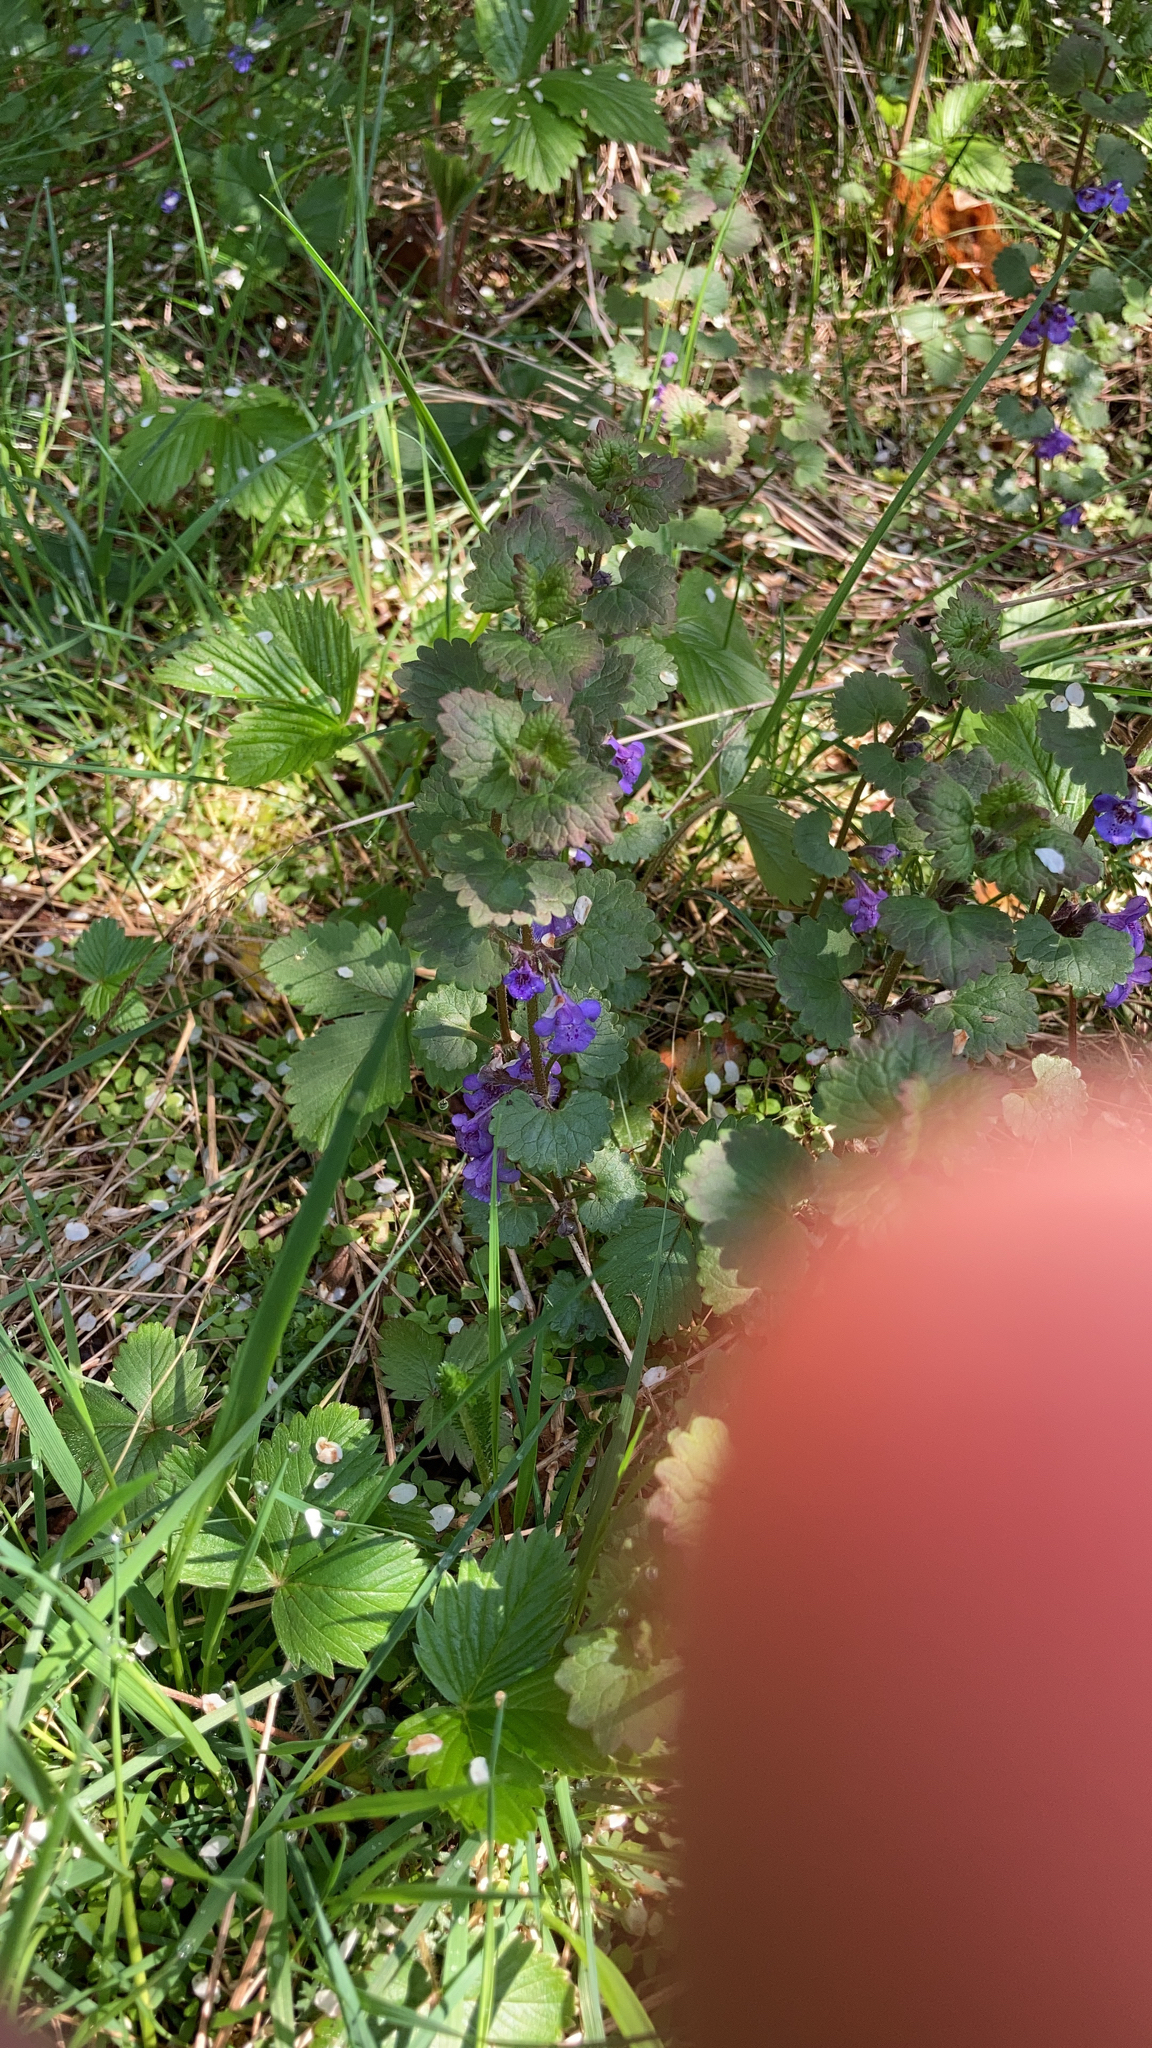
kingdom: Plantae
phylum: Tracheophyta
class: Magnoliopsida
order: Lamiales
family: Lamiaceae
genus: Glechoma
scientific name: Glechoma hederacea
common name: Ground ivy
